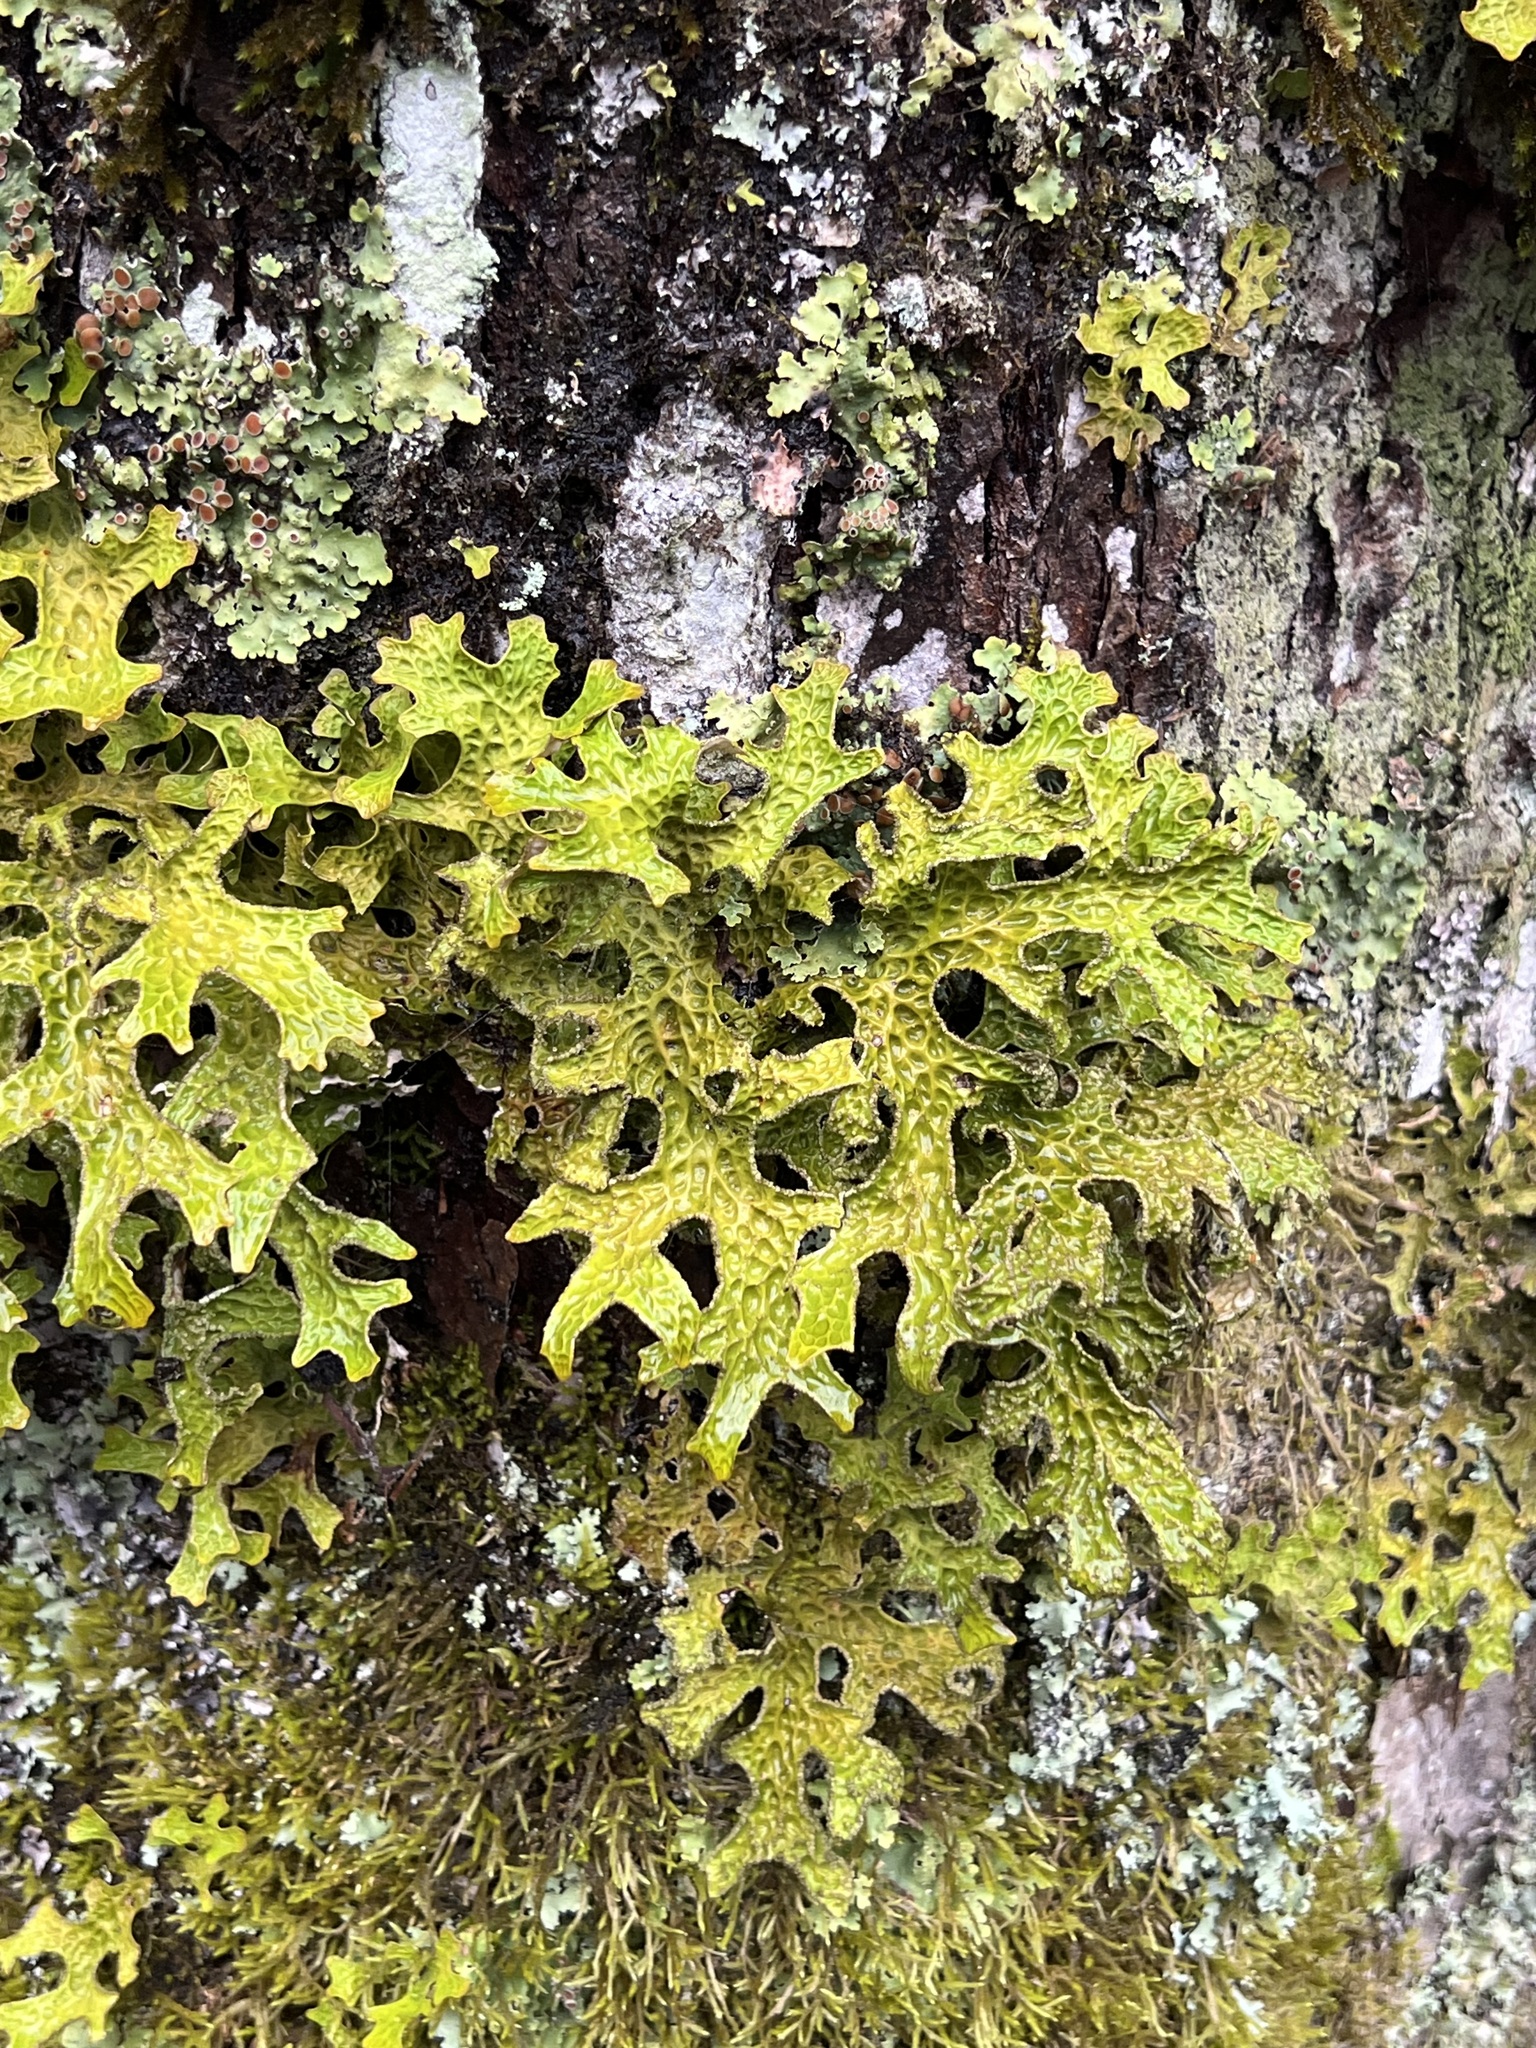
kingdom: Fungi
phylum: Ascomycota
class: Lecanoromycetes
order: Peltigerales
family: Lobariaceae
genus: Lobaria
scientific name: Lobaria pulmonaria
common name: Lungwort
